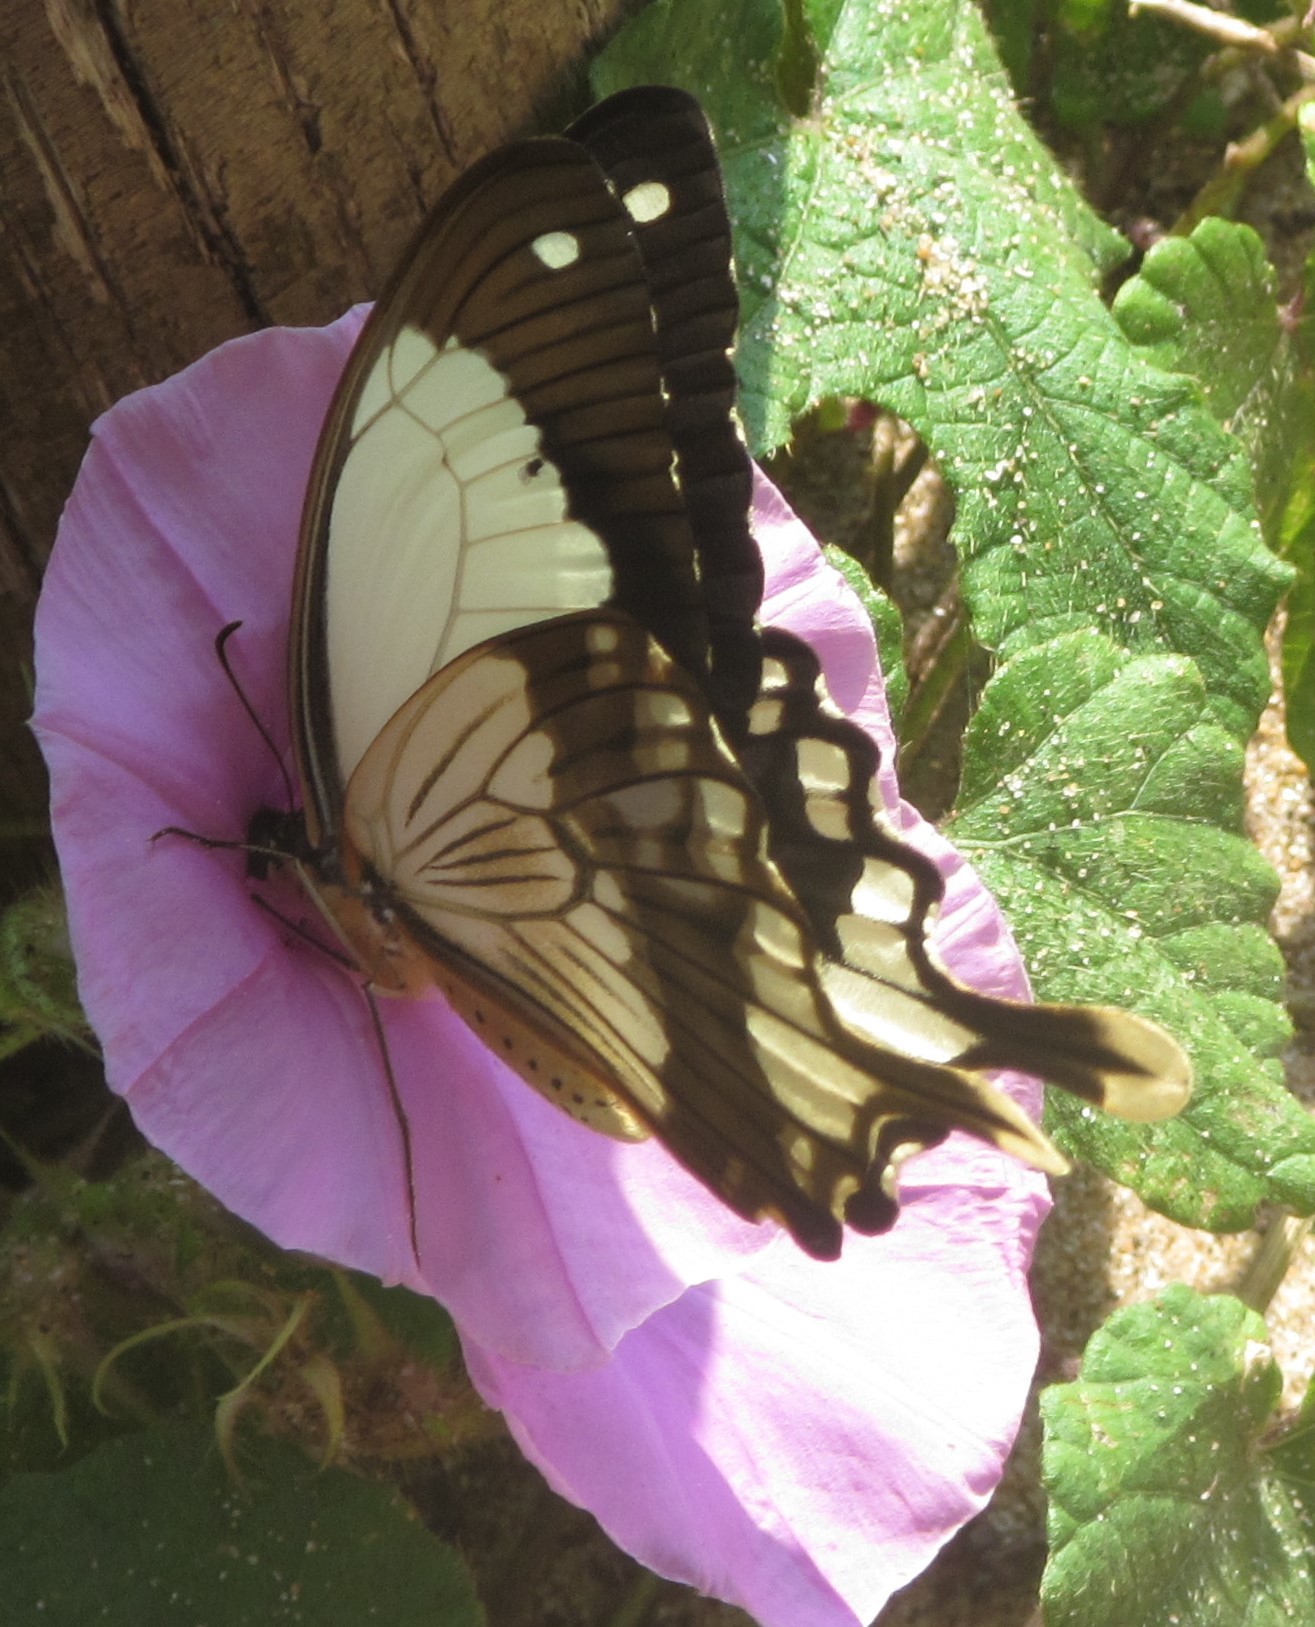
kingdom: Animalia
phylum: Arthropoda
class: Insecta
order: Lepidoptera
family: Papilionidae
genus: Papilio
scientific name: Papilio dardanus
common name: Flying handkerchief
